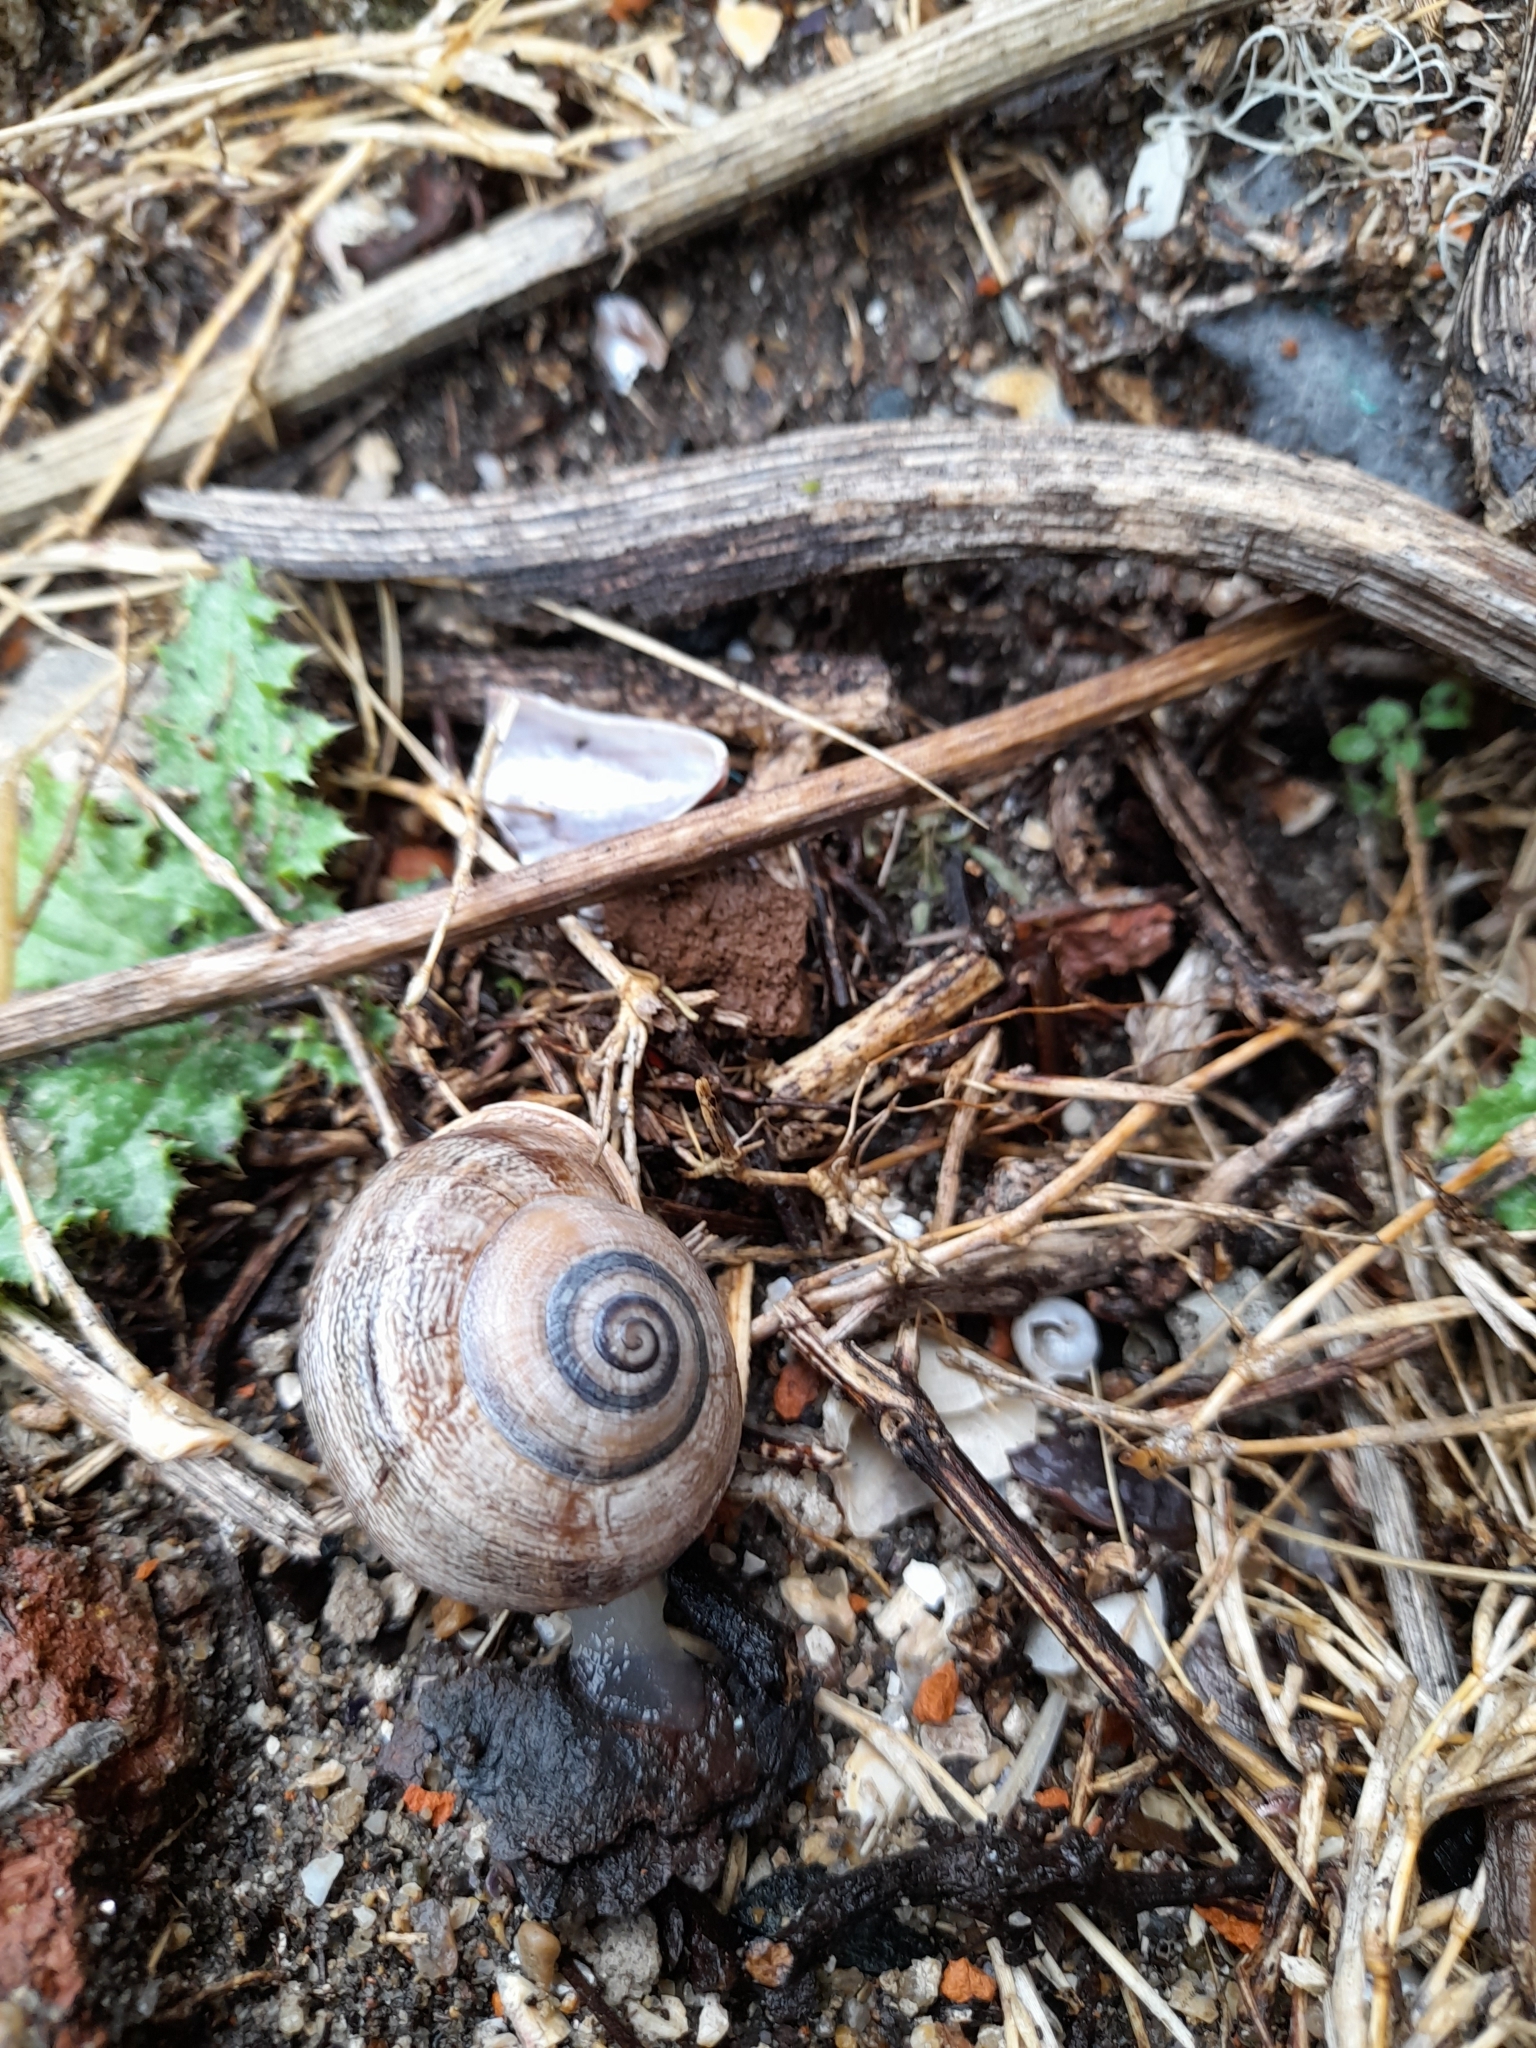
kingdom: Animalia
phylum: Mollusca
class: Gastropoda
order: Stylommatophora
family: Helicidae
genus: Otala
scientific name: Otala punctata
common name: Milk snail
